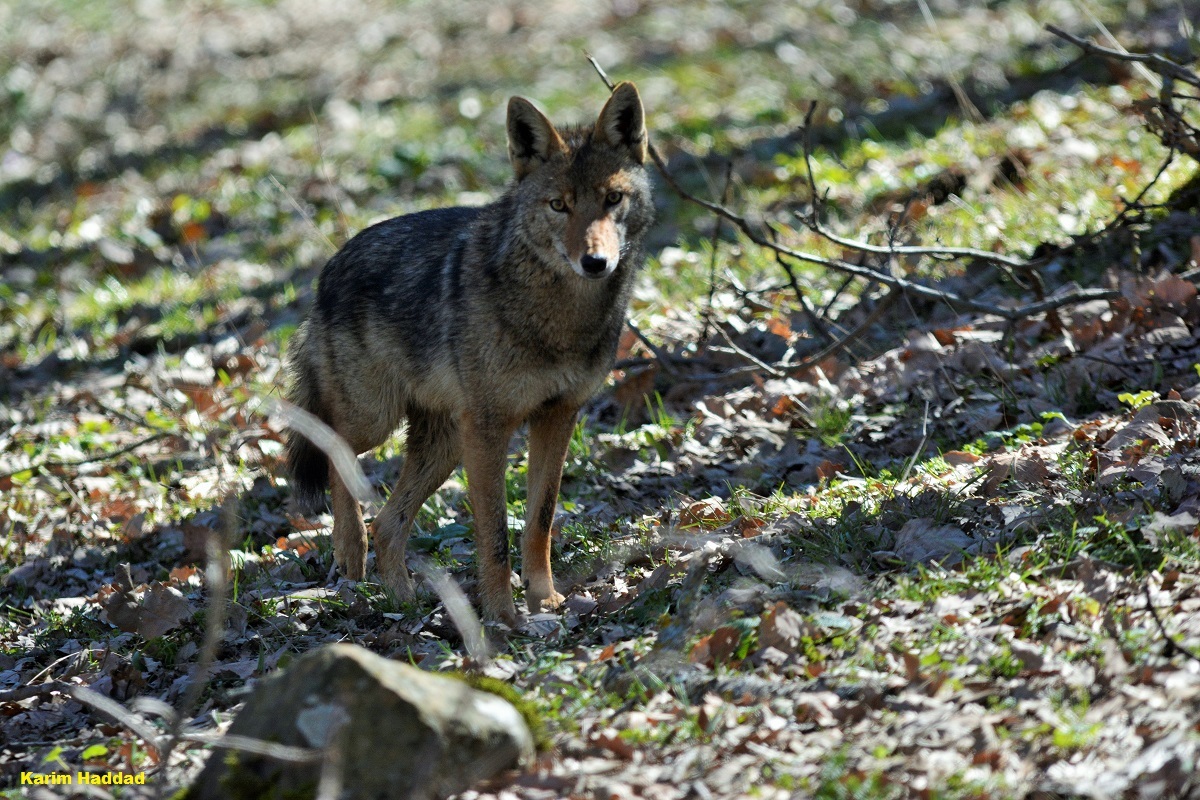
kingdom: Animalia
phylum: Chordata
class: Mammalia
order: Carnivora
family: Canidae
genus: Canis
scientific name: Canis lupaster
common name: African golden wolf
